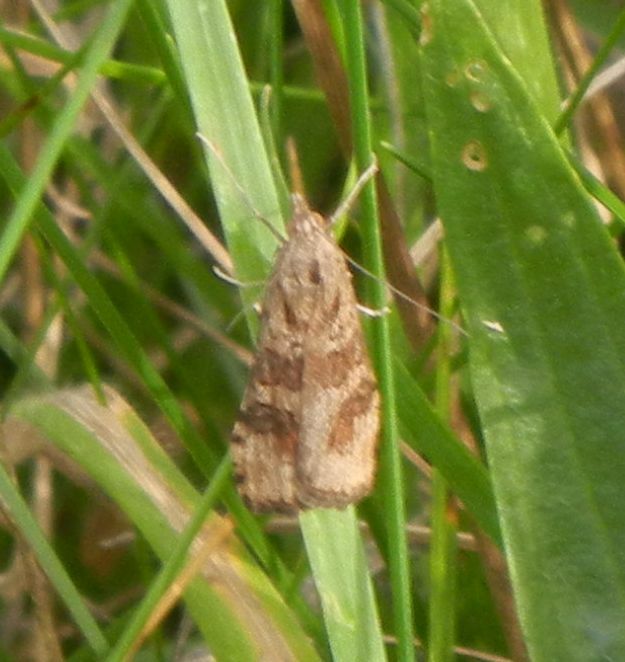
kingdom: Animalia
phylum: Arthropoda
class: Insecta
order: Lepidoptera
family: Crambidae
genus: Nomophila
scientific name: Nomophila noctuella
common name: Rush veneer
